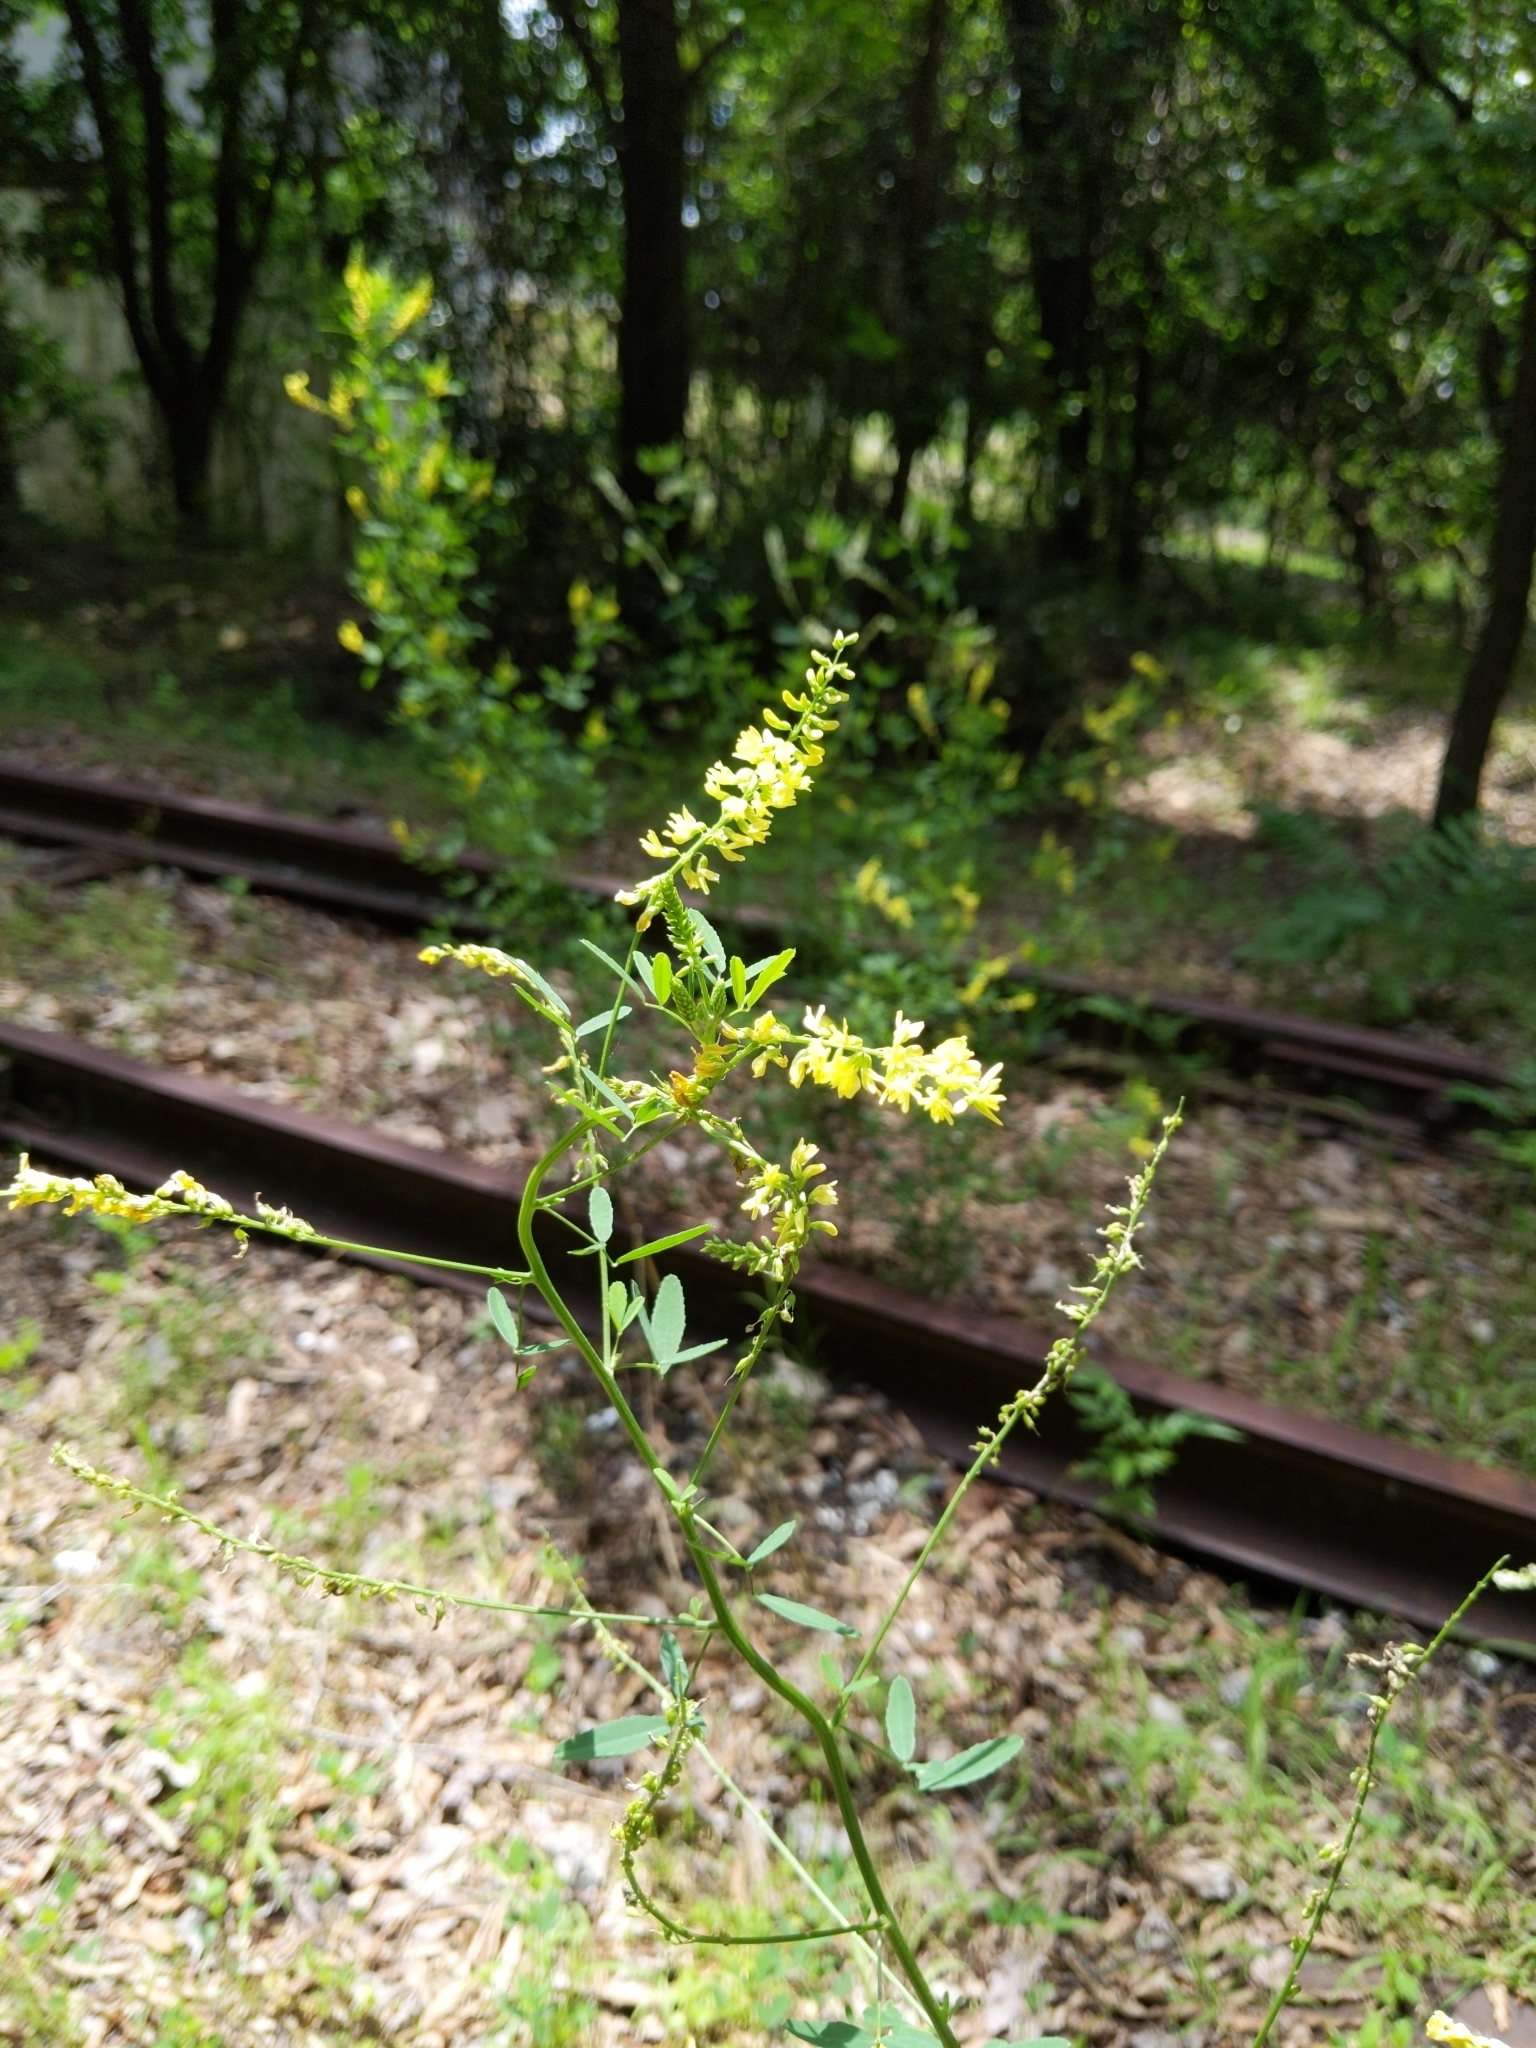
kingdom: Plantae
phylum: Tracheophyta
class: Magnoliopsida
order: Fabales
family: Fabaceae
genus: Melilotus
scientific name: Melilotus officinalis
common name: Sweetclover
